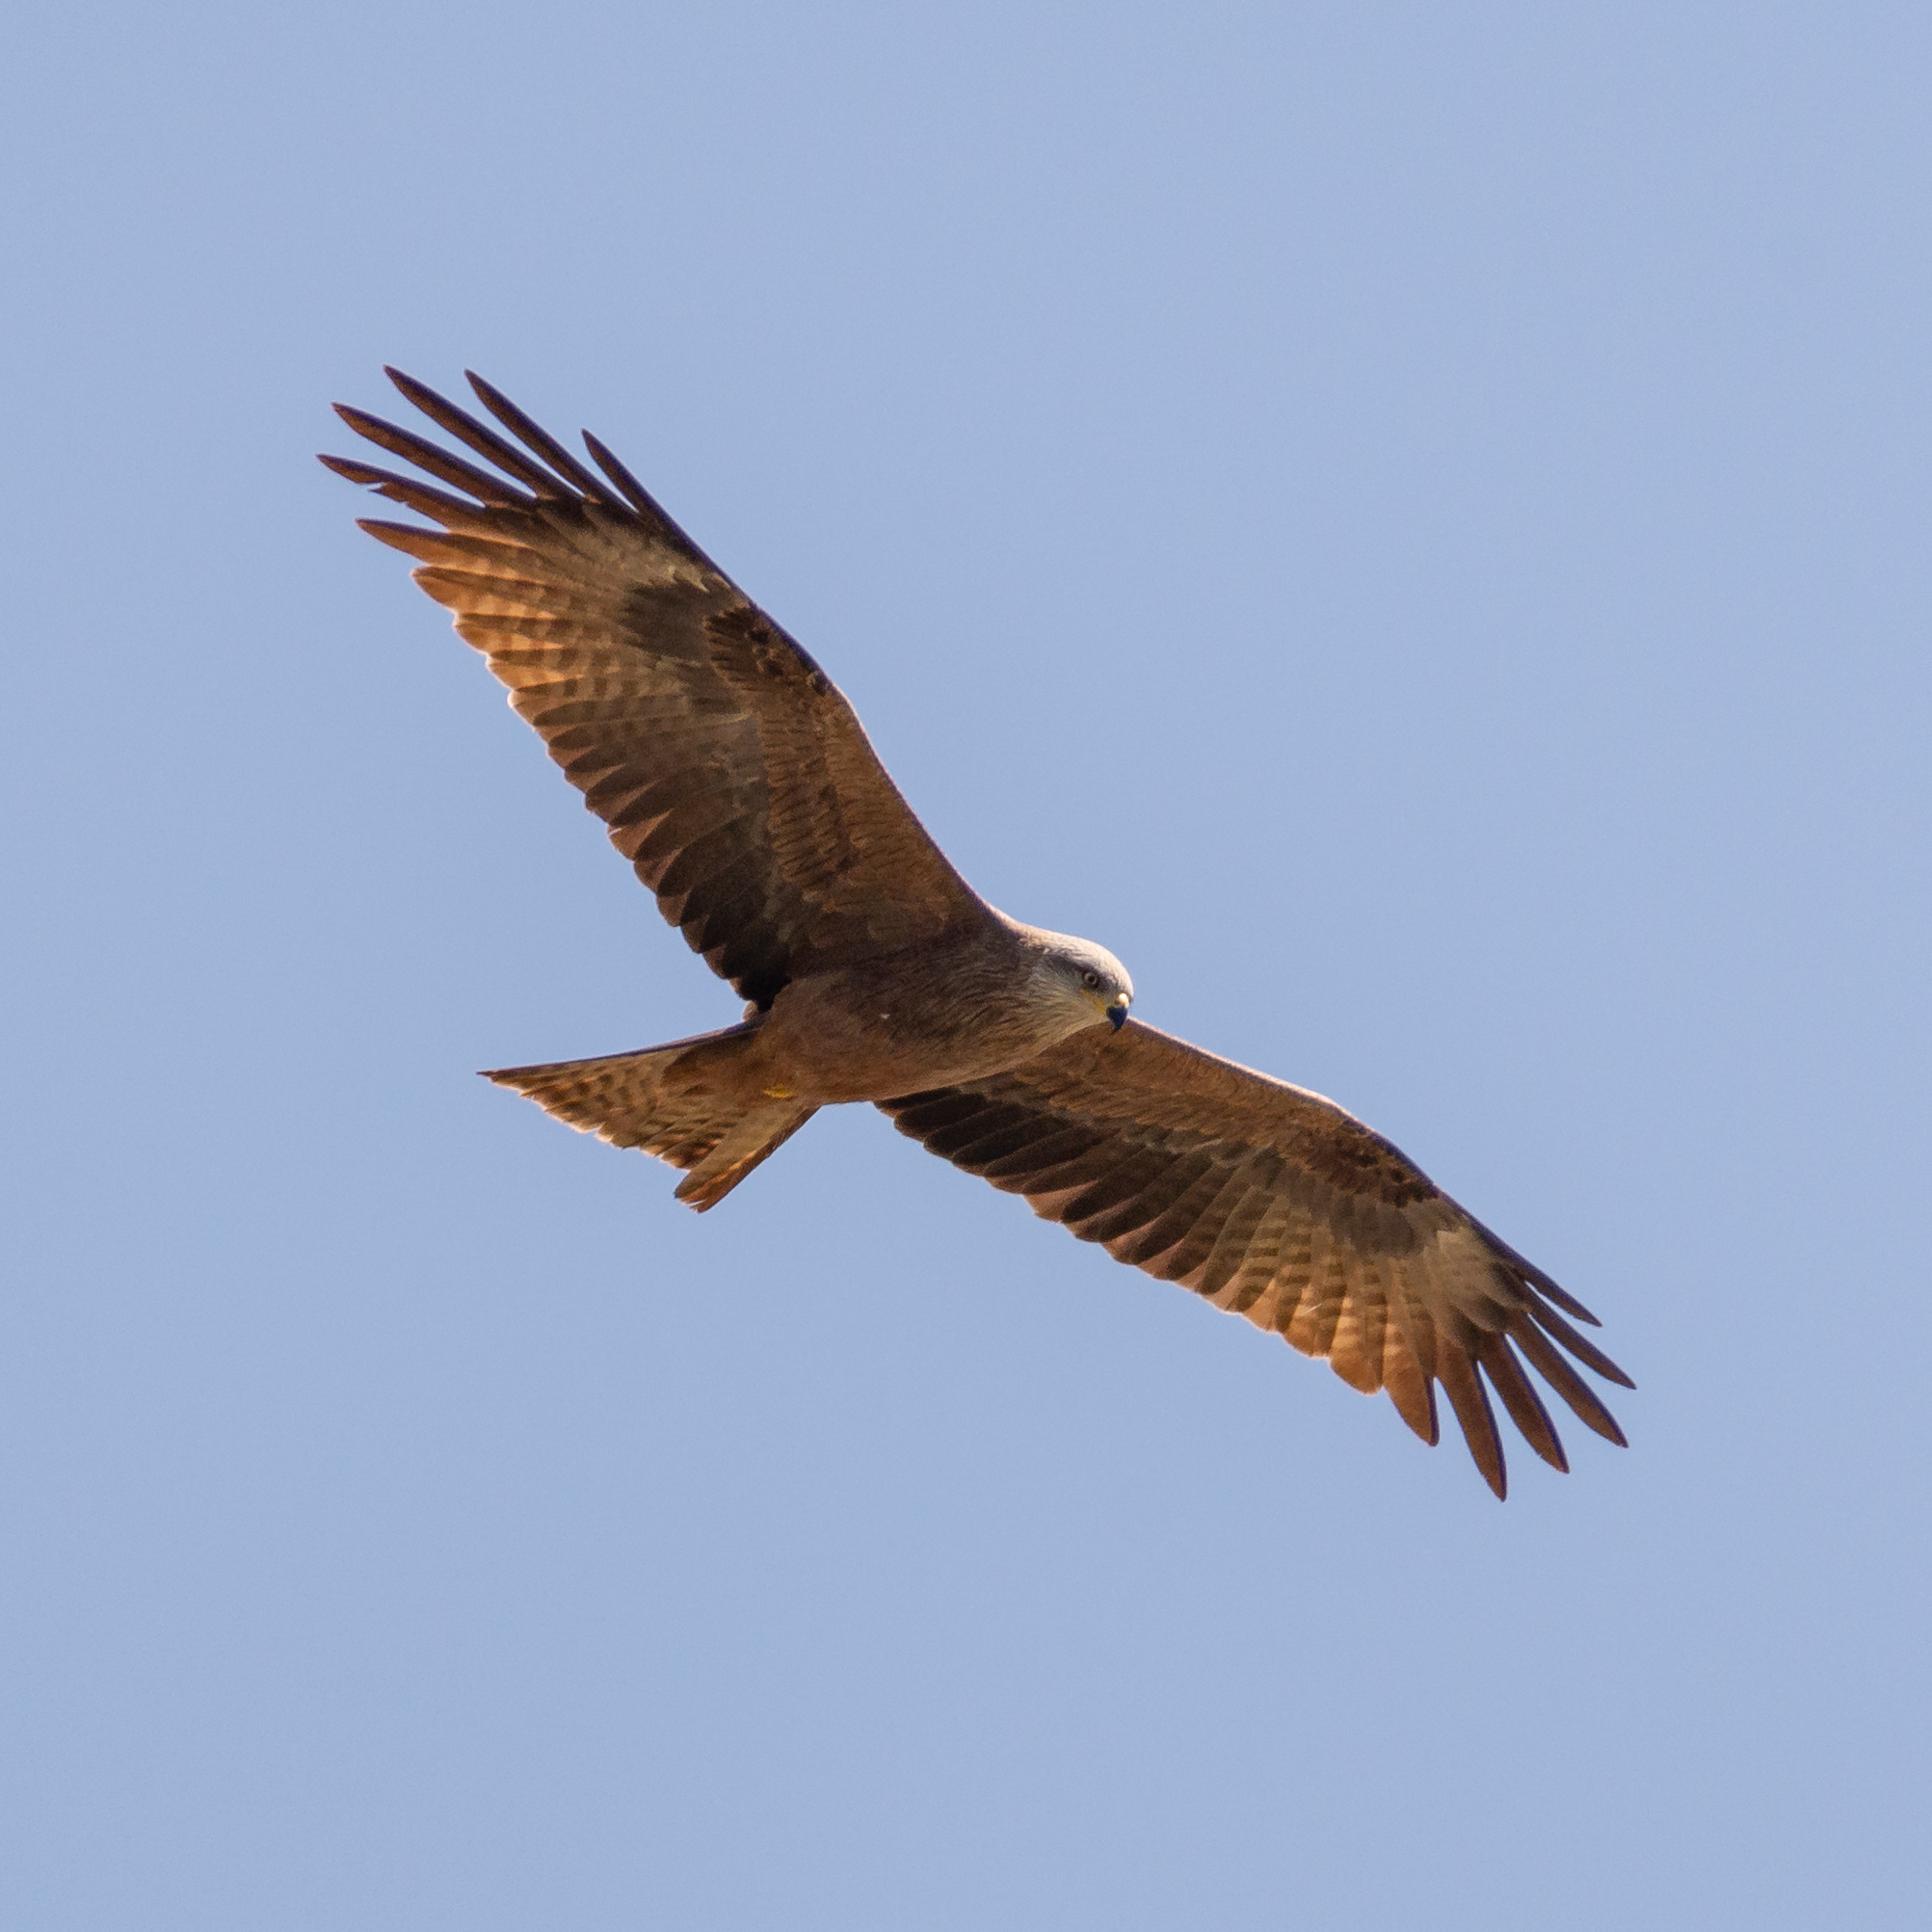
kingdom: Animalia
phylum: Chordata
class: Aves
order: Accipitriformes
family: Accipitridae
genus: Milvus
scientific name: Milvus migrans
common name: Black kite
